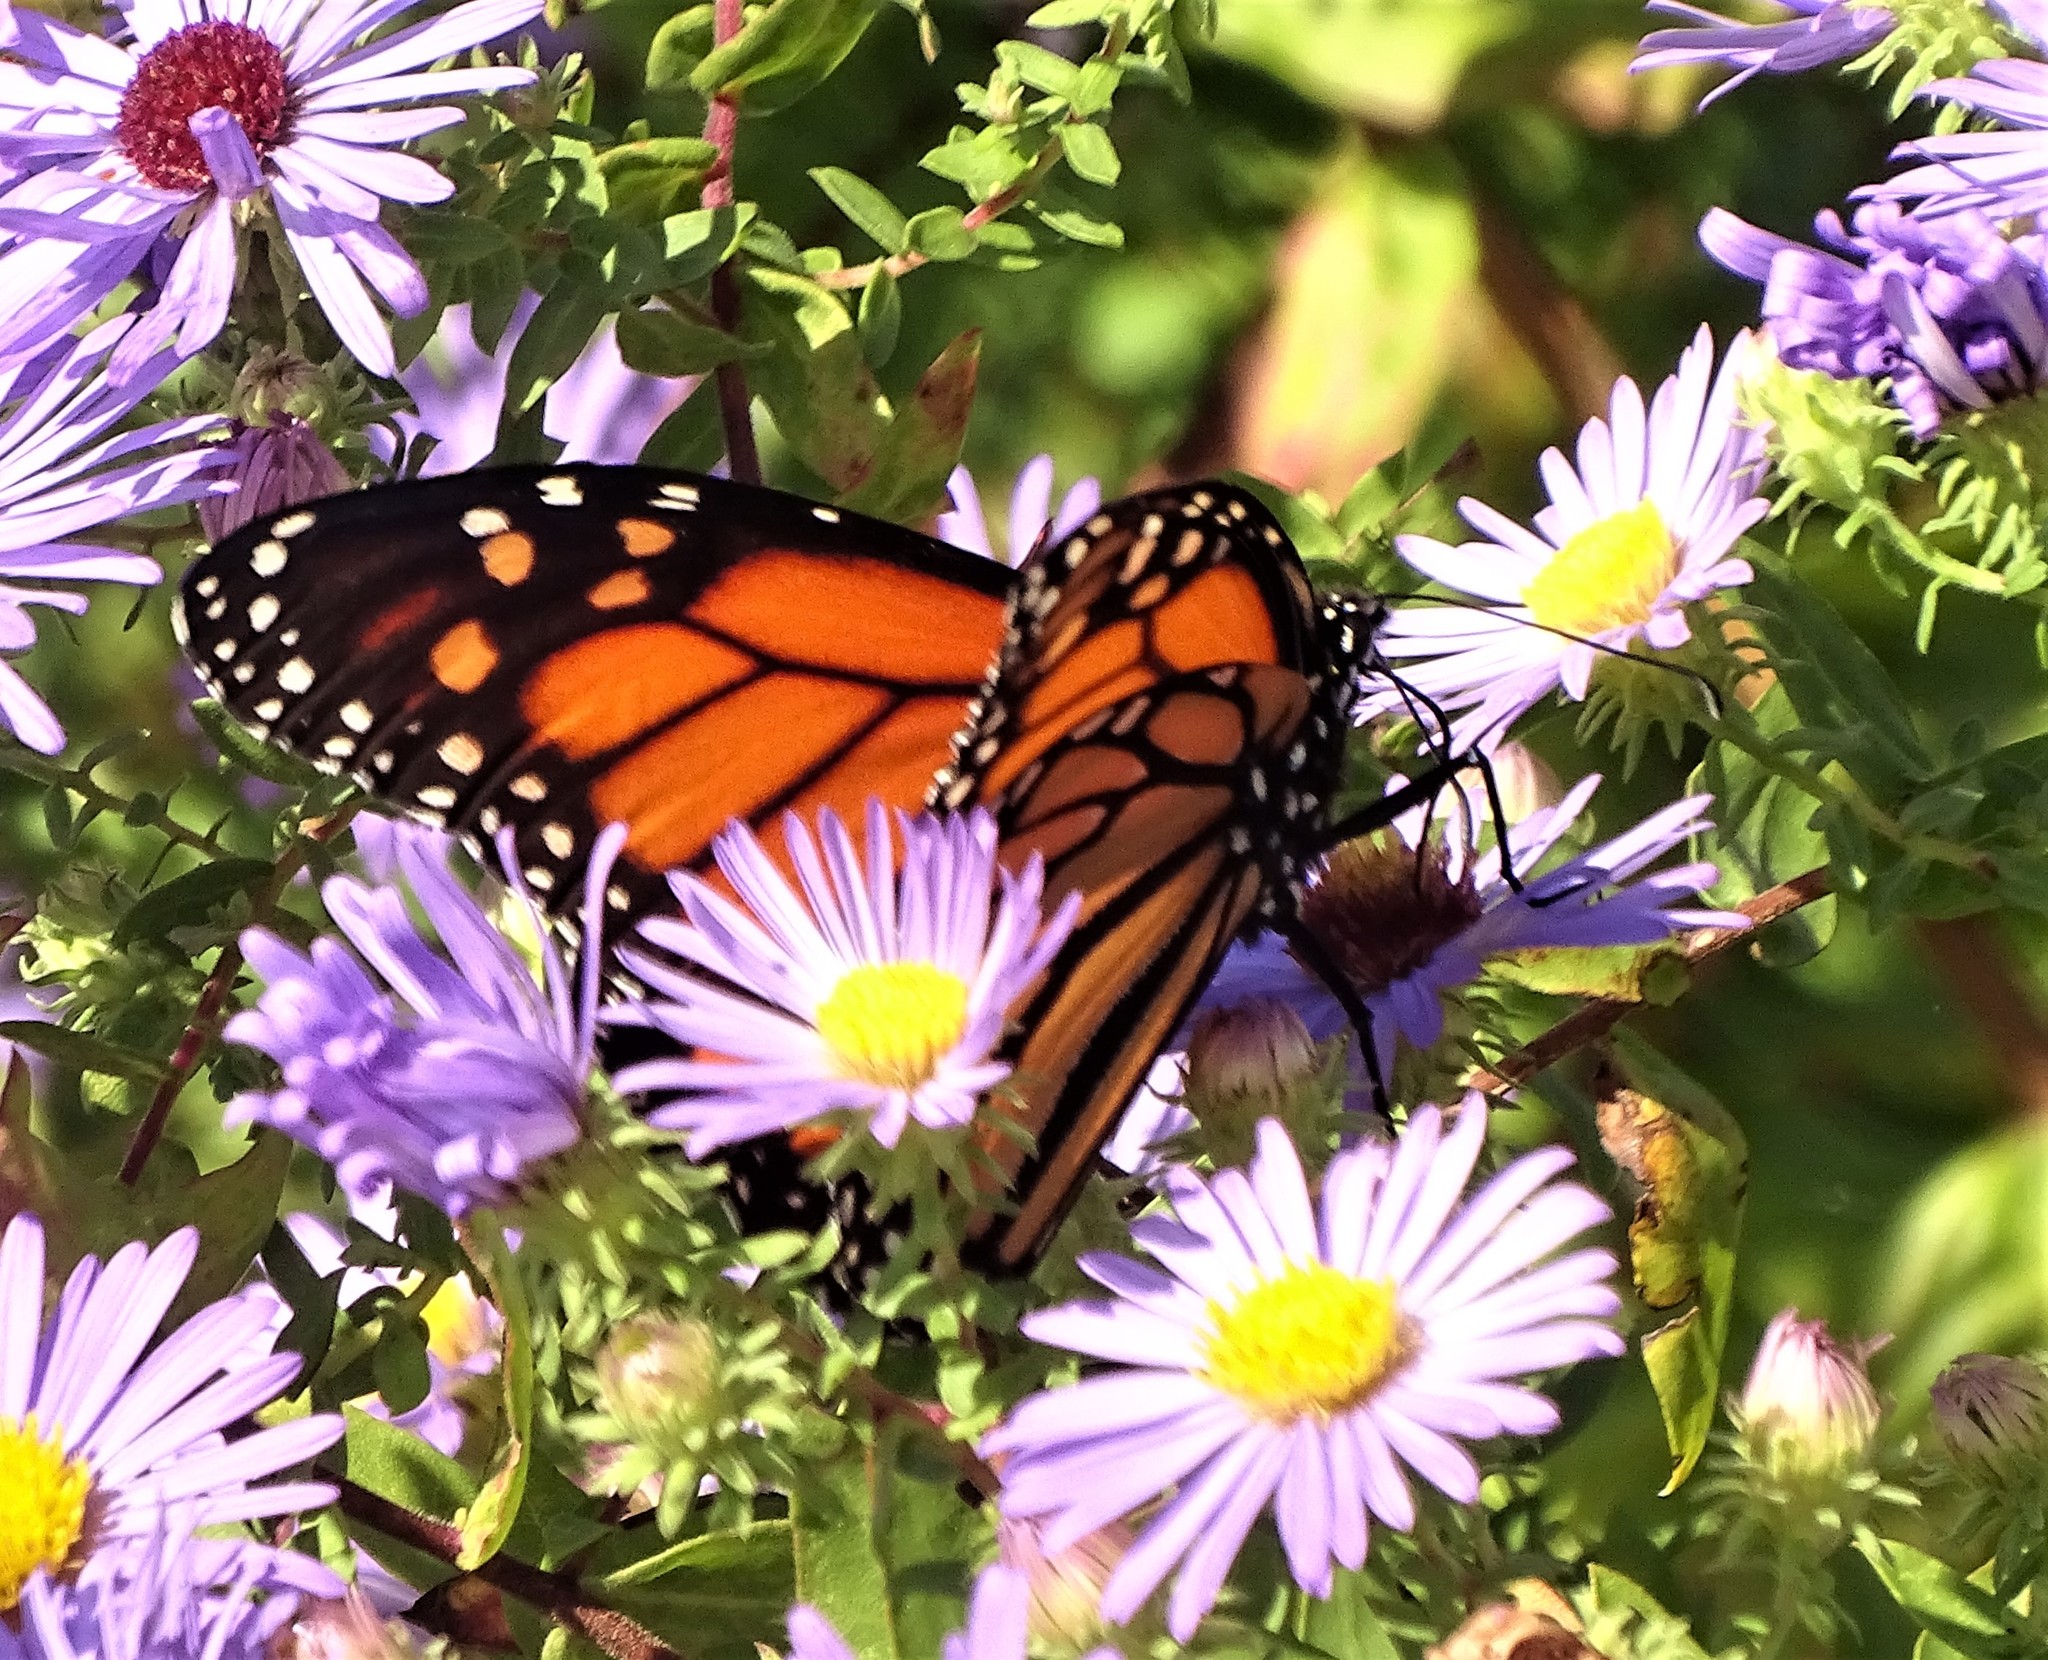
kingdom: Animalia
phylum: Arthropoda
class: Insecta
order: Lepidoptera
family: Nymphalidae
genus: Danaus
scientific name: Danaus plexippus
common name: Monarch
